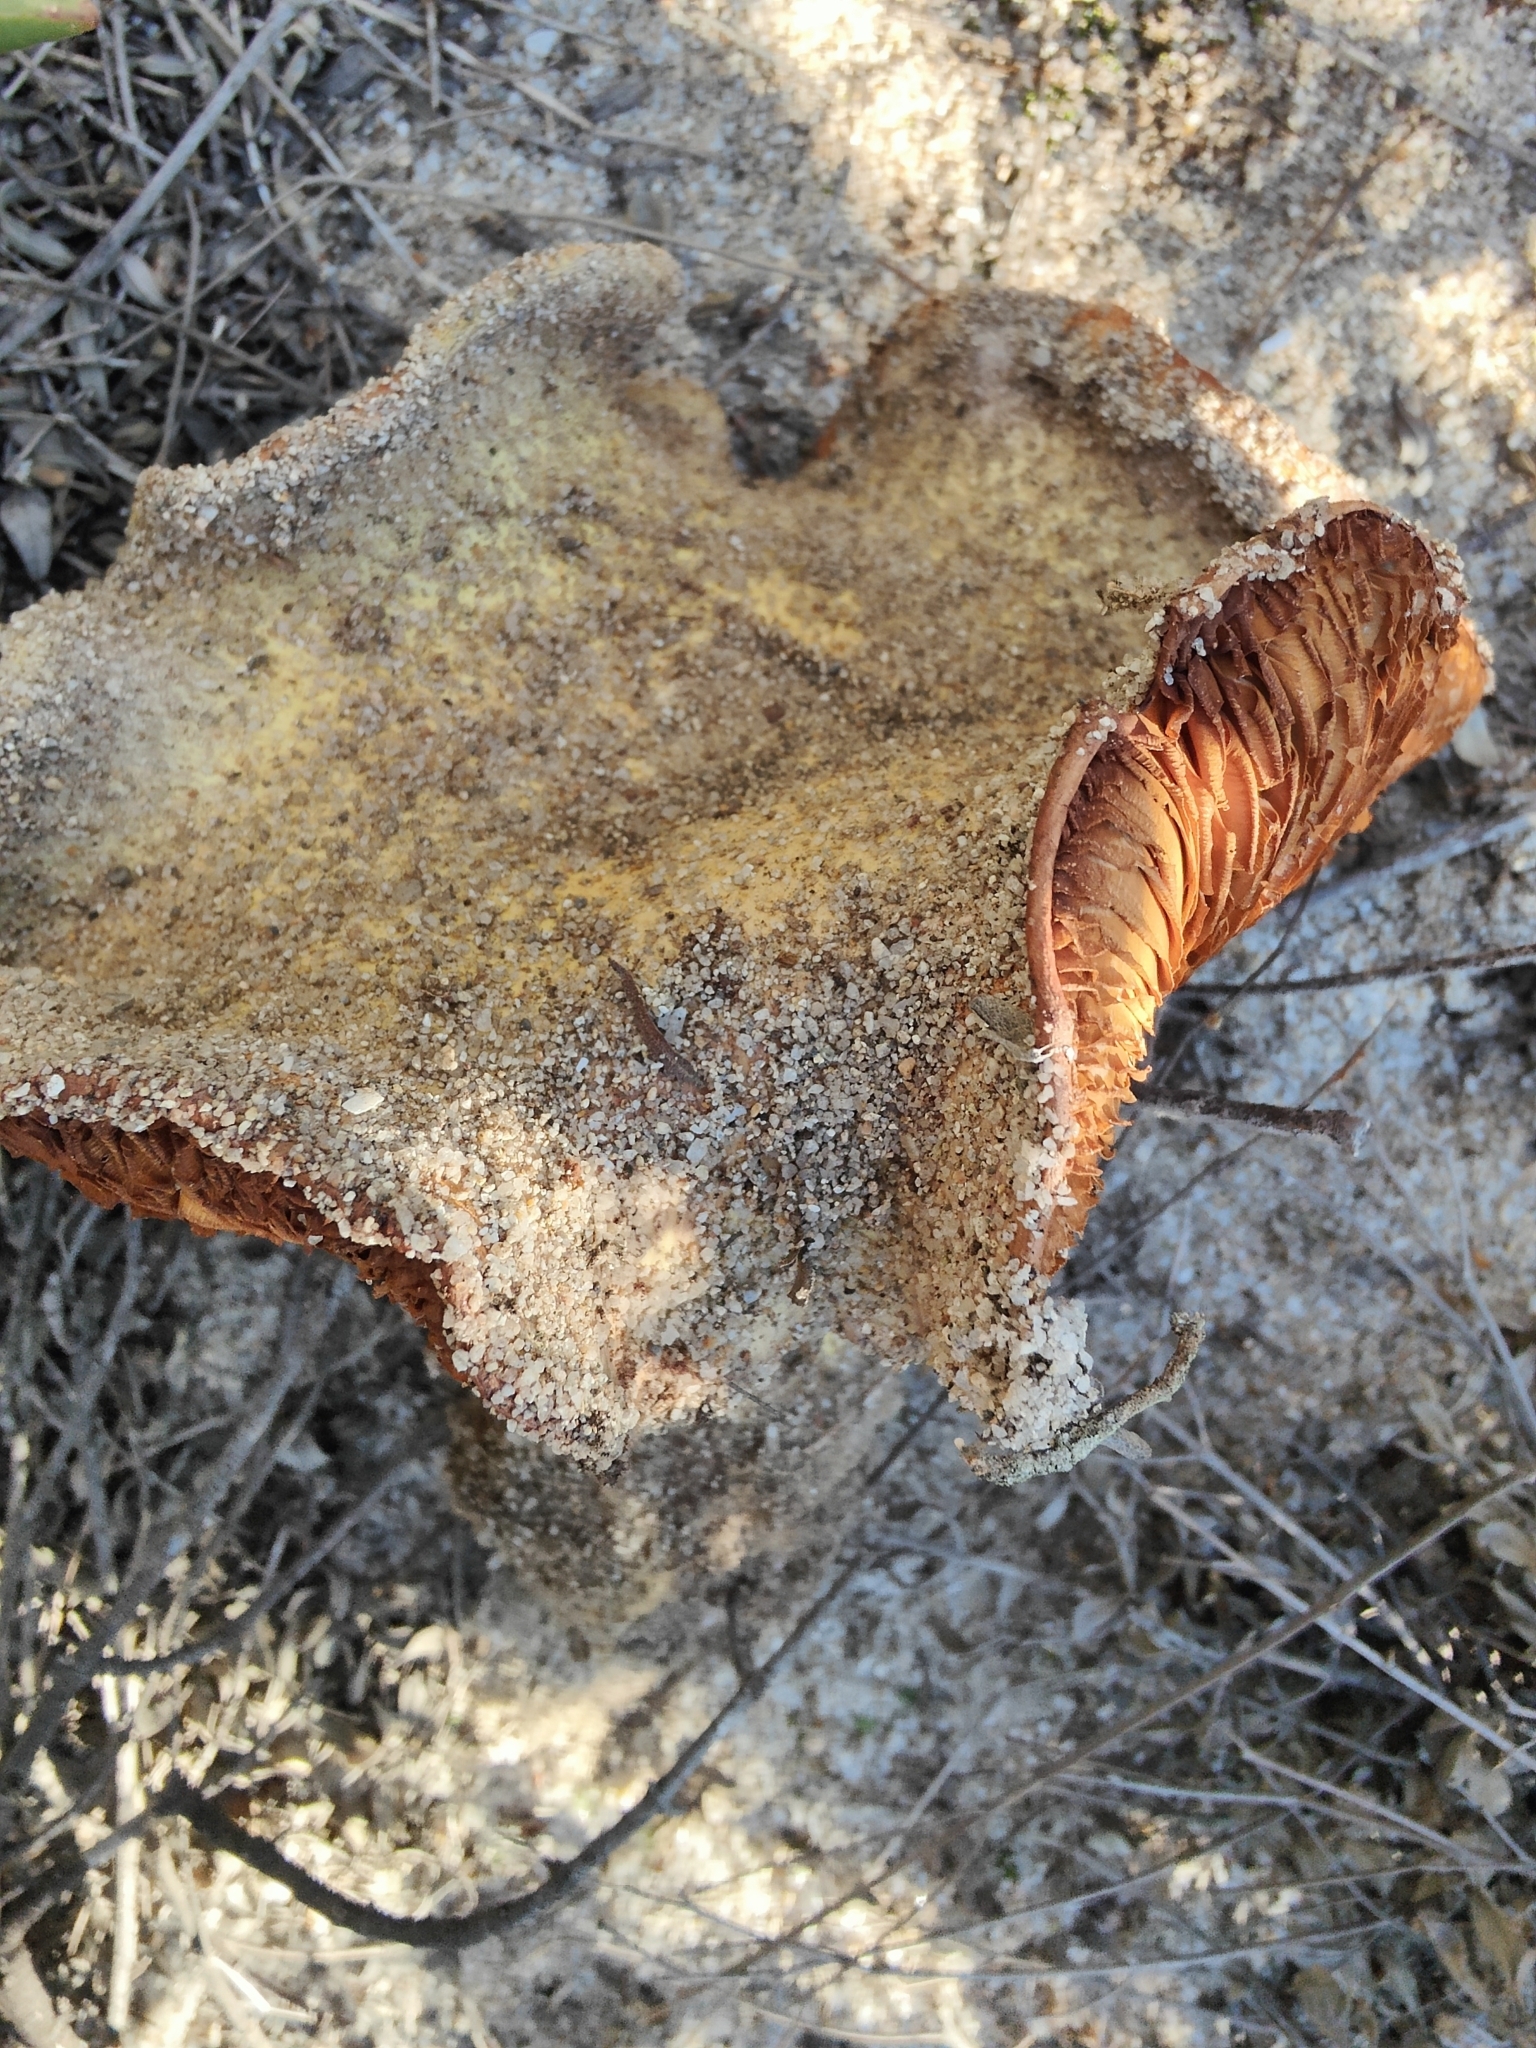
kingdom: Fungi
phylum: Basidiomycota
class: Agaricomycetes
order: Agaricales
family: Cortinariaceae
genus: Calonarius
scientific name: Calonarius cedretorum
